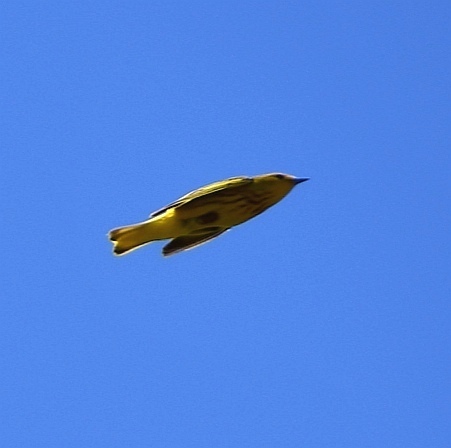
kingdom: Animalia
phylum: Chordata
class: Aves
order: Passeriformes
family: Parulidae
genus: Setophaga
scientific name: Setophaga petechia
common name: Yellow warbler
